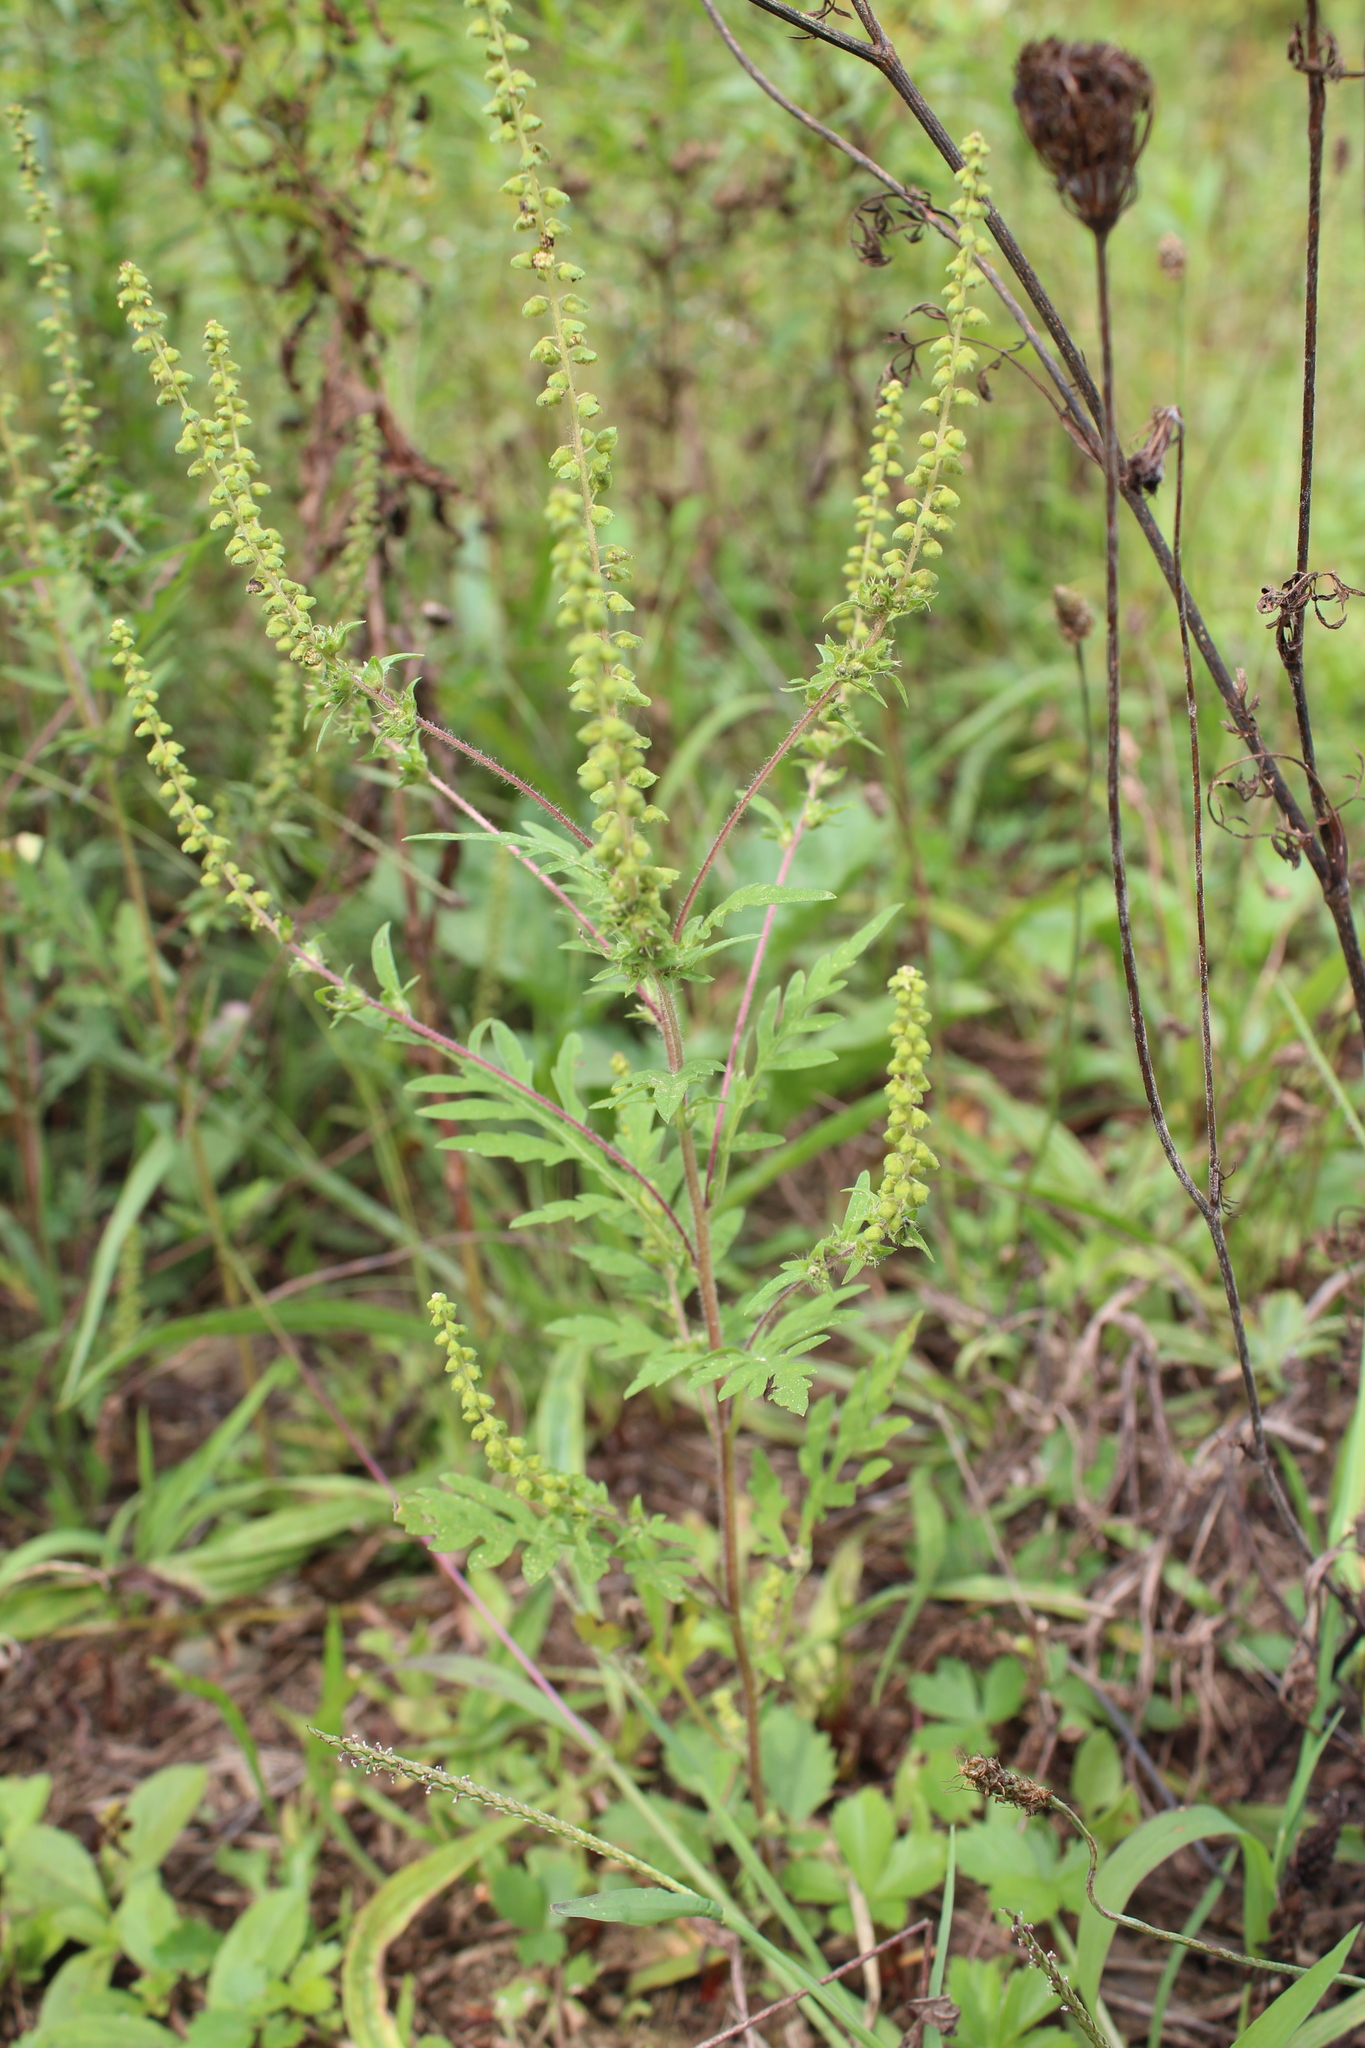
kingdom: Plantae
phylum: Tracheophyta
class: Magnoliopsida
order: Asterales
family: Asteraceae
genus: Ambrosia
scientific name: Ambrosia artemisiifolia
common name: Annual ragweed
